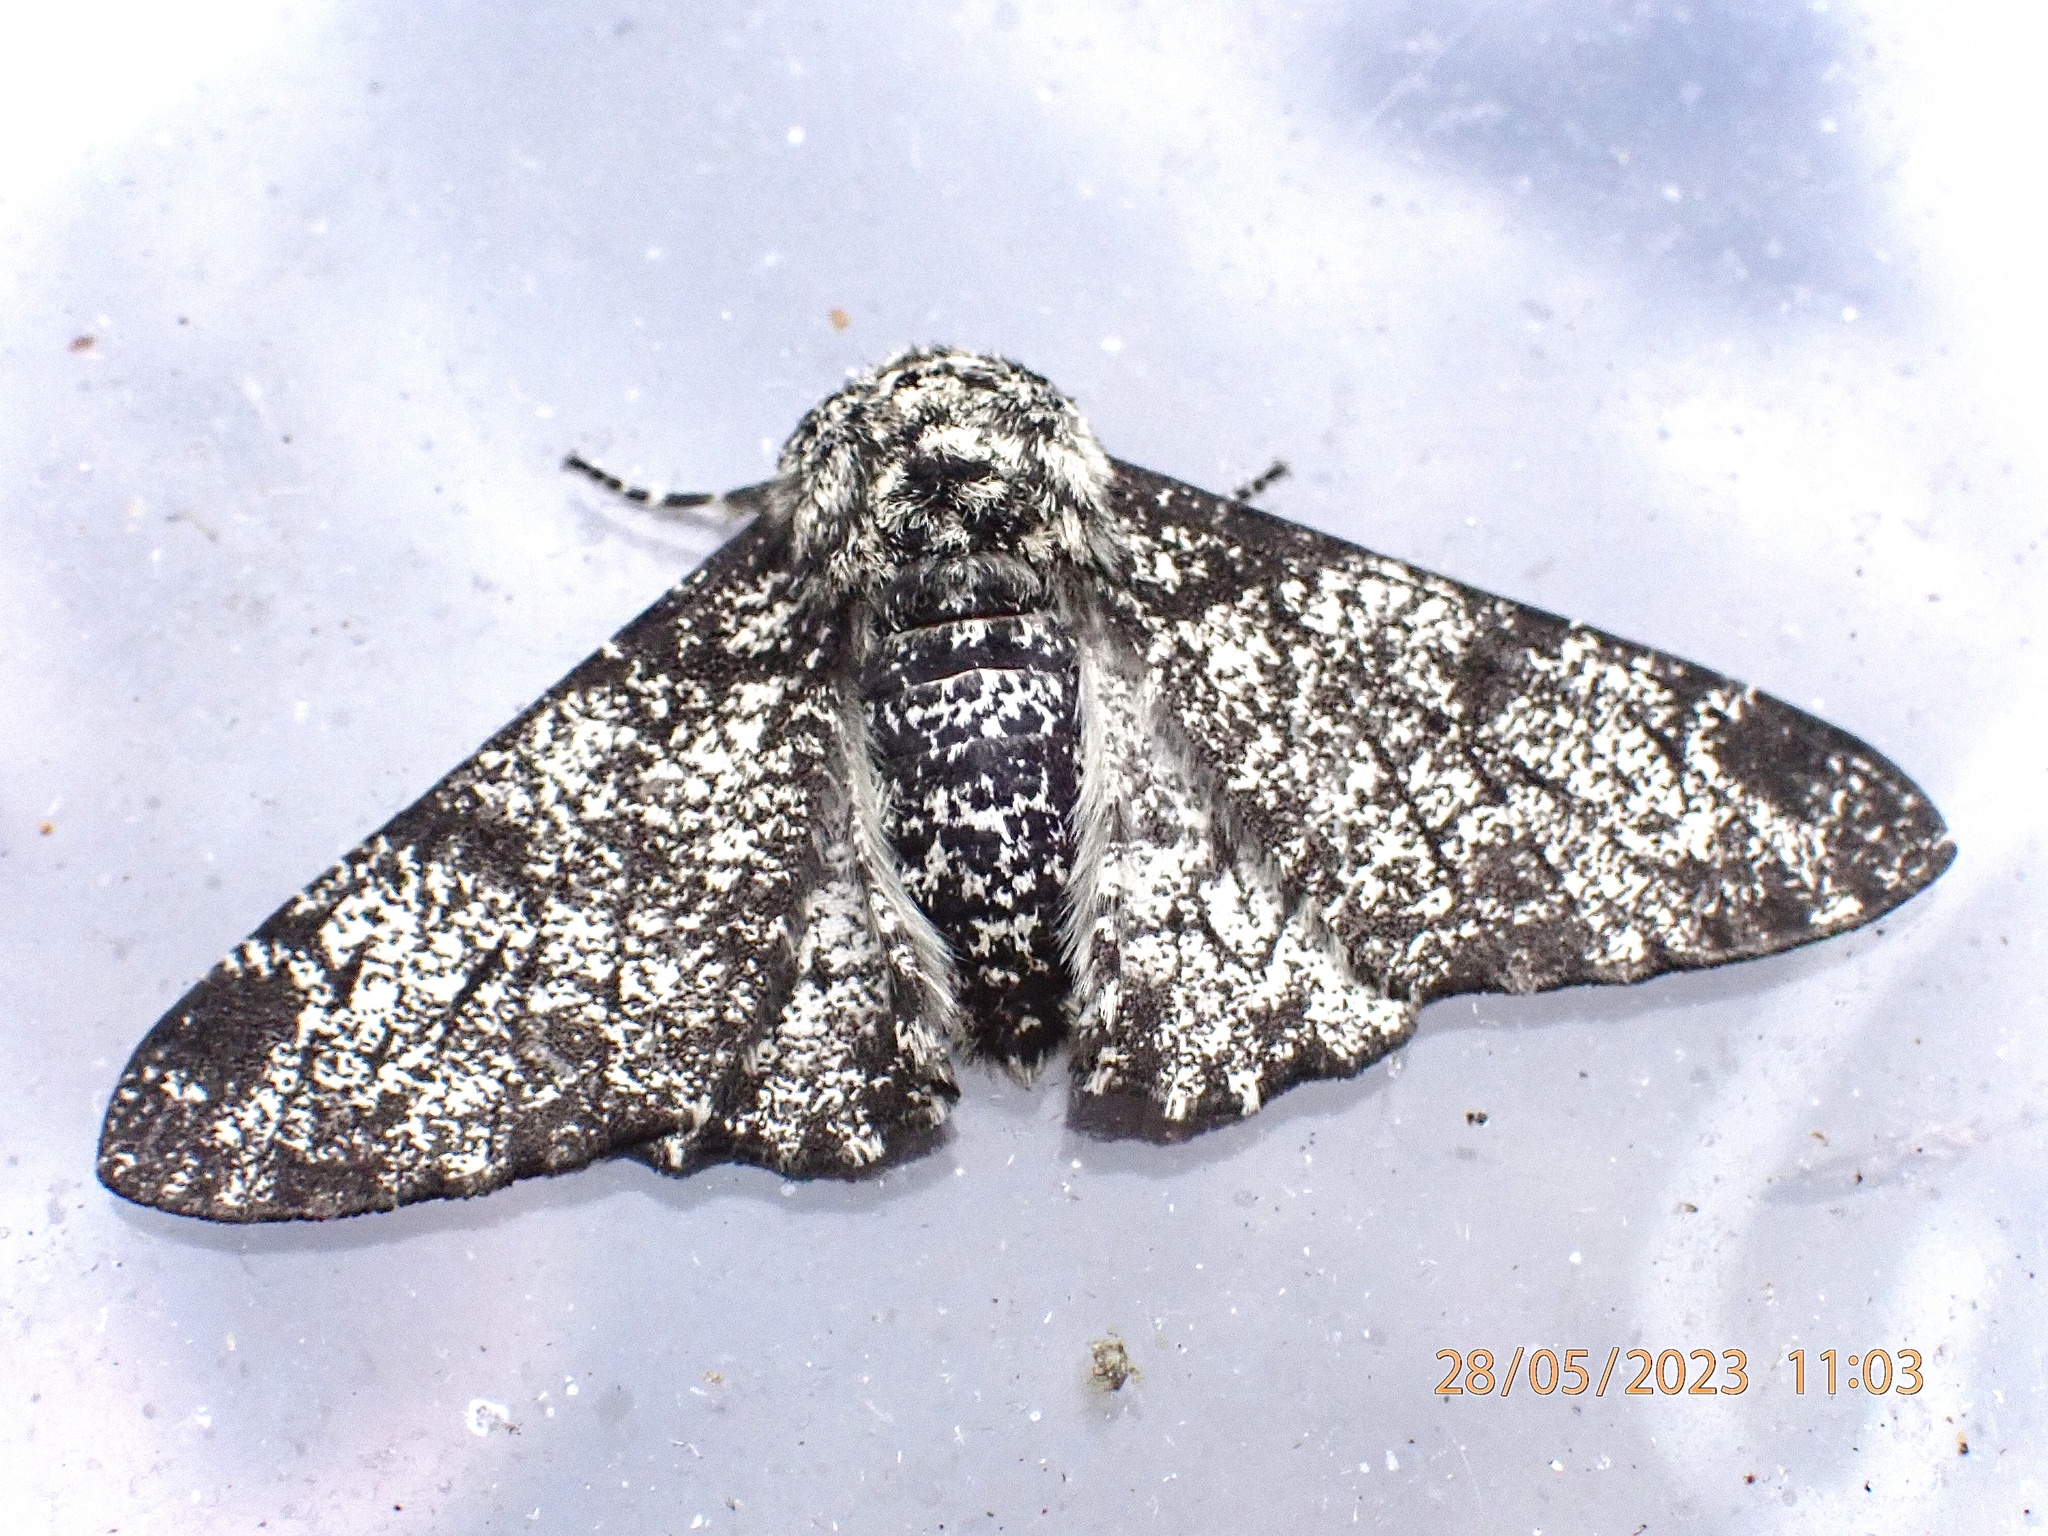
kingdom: Animalia
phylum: Arthropoda
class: Insecta
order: Lepidoptera
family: Geometridae
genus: Biston
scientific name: Biston betularia
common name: Peppered moth
